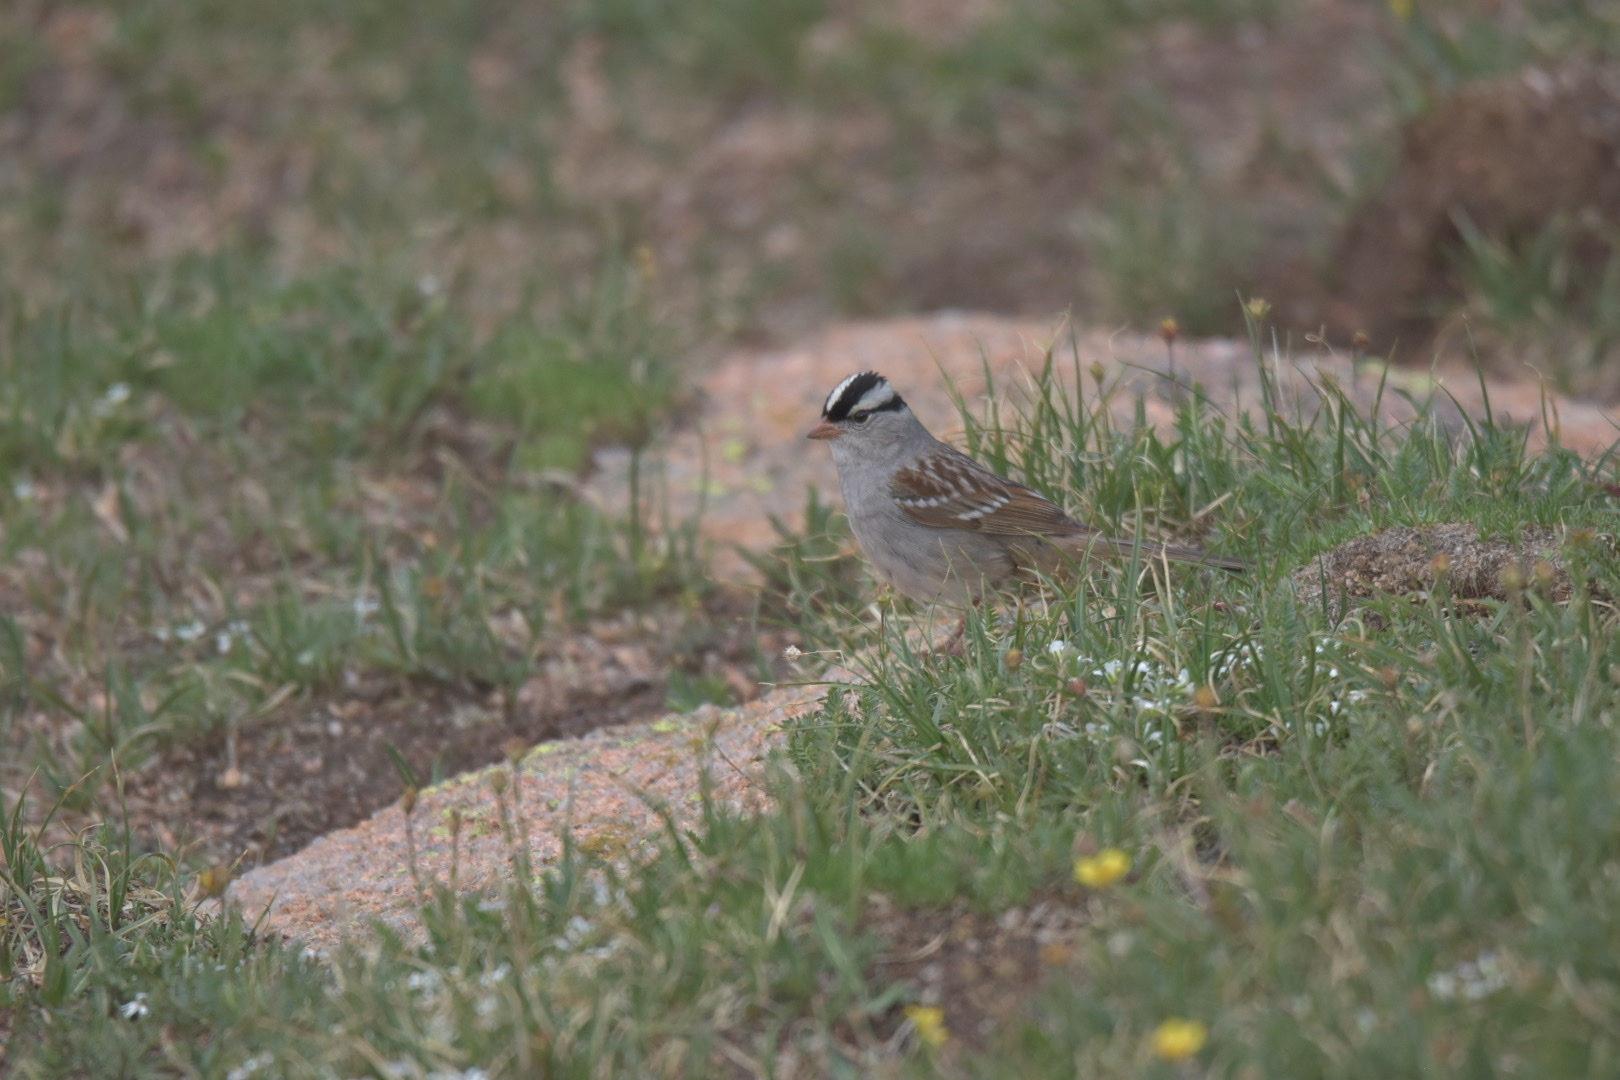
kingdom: Animalia
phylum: Chordata
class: Aves
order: Passeriformes
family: Passerellidae
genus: Zonotrichia
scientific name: Zonotrichia leucophrys
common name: White-crowned sparrow
